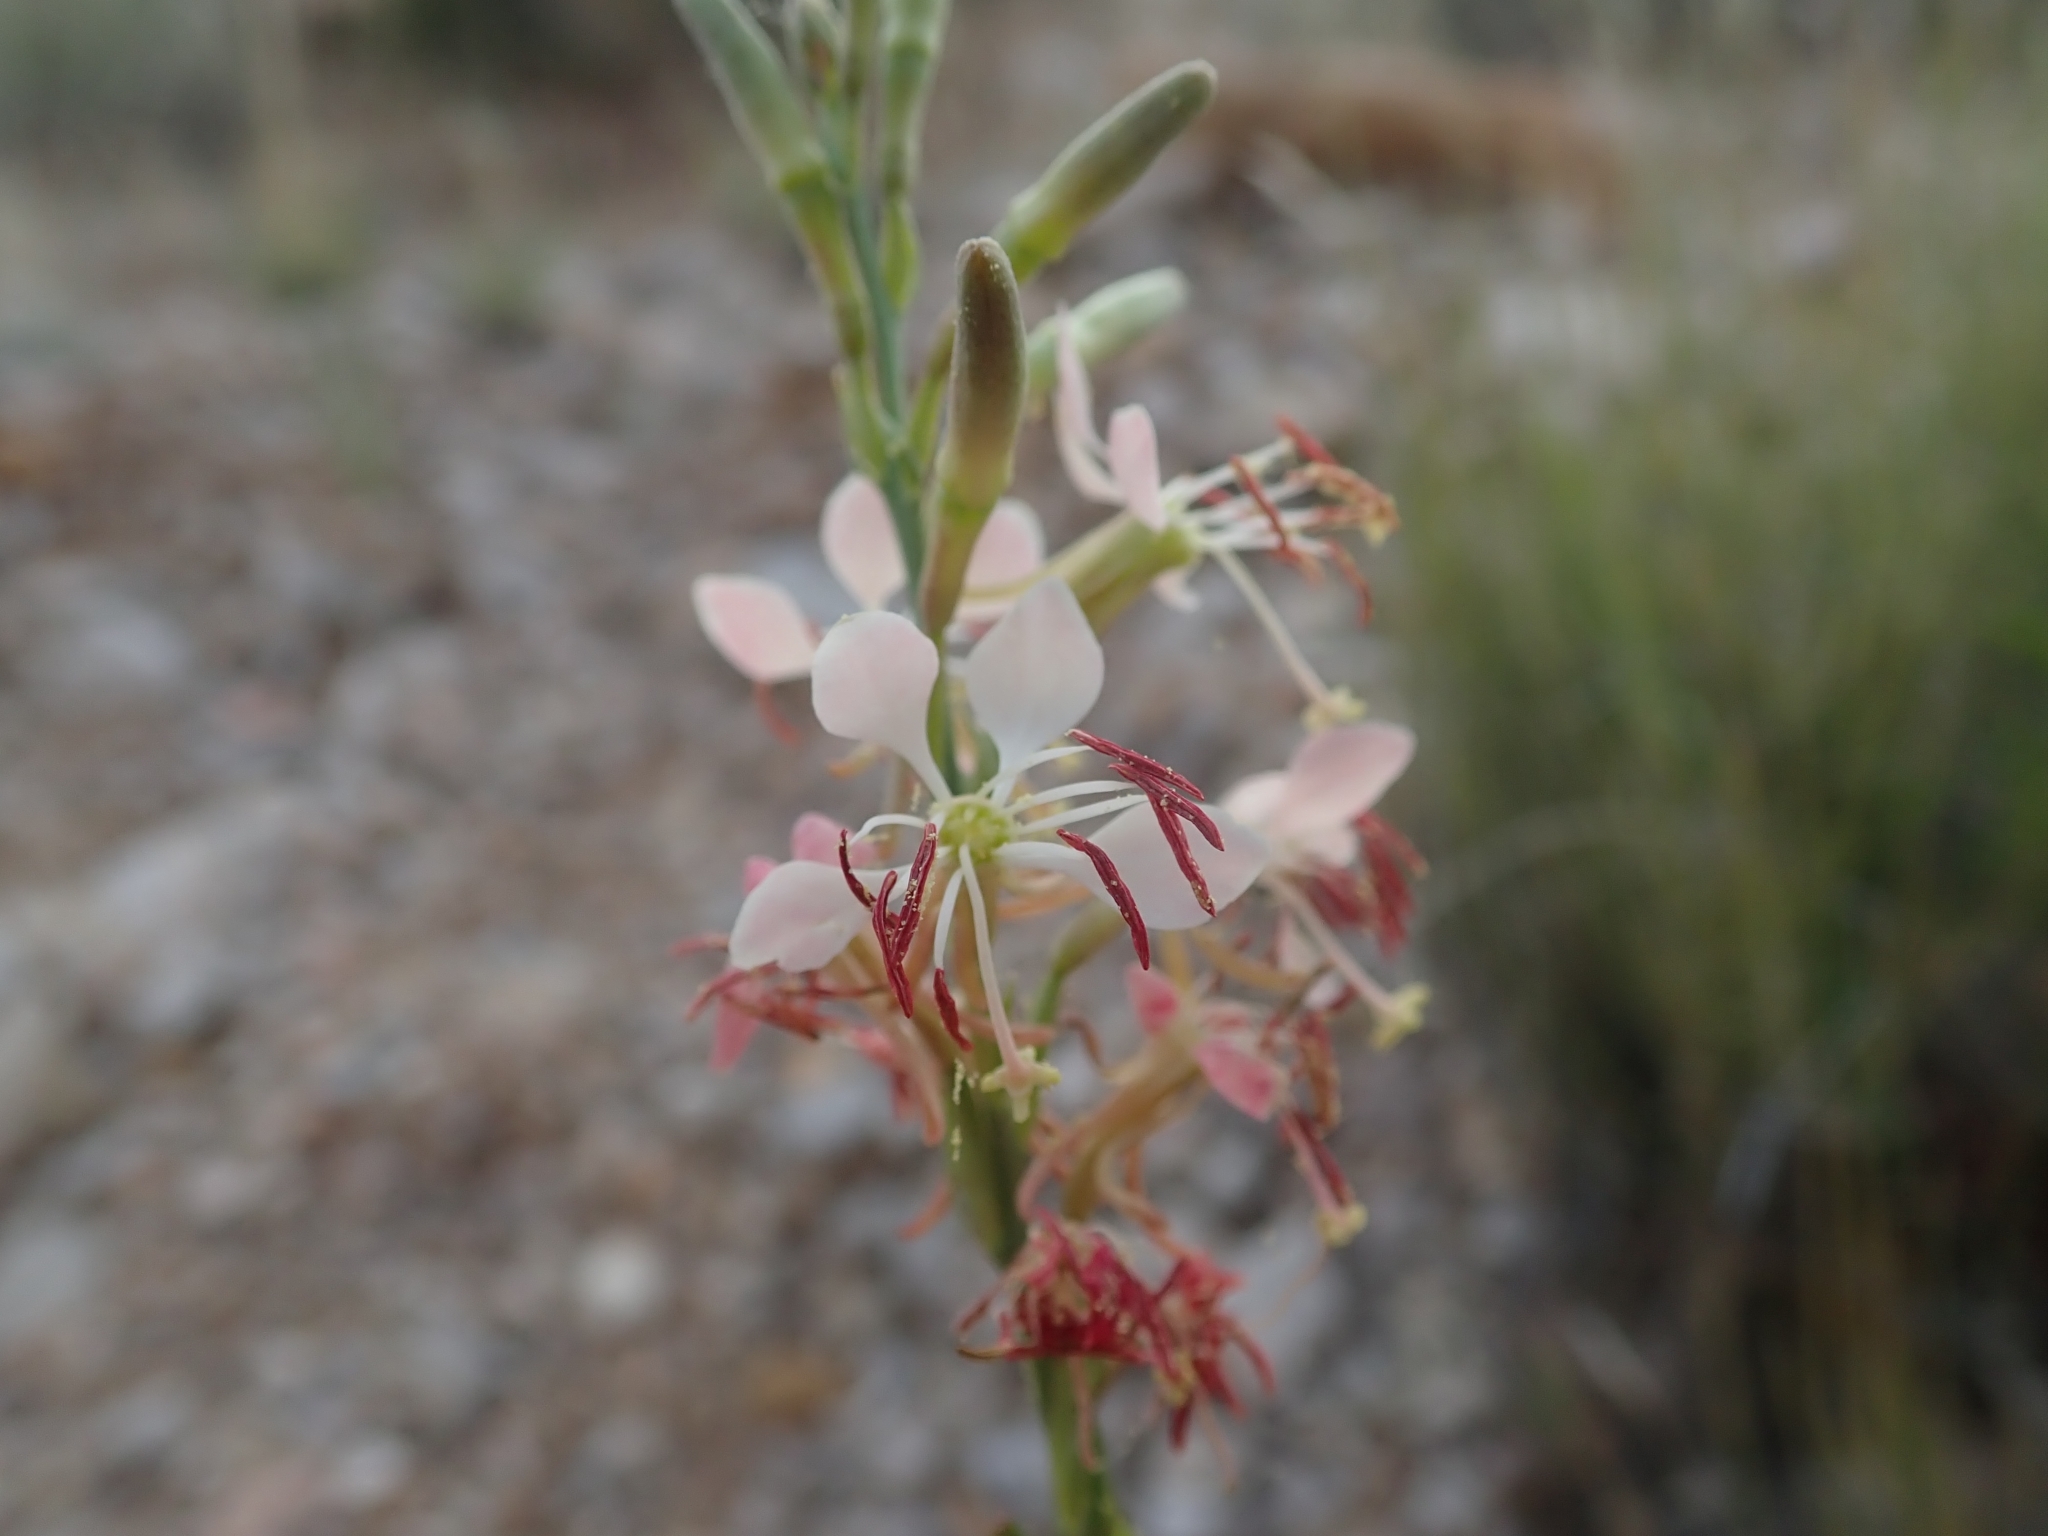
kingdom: Plantae
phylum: Tracheophyta
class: Magnoliopsida
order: Myrtales
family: Onagraceae
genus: Oenothera
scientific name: Oenothera suffrutescens
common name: Scarlet beeblossom
